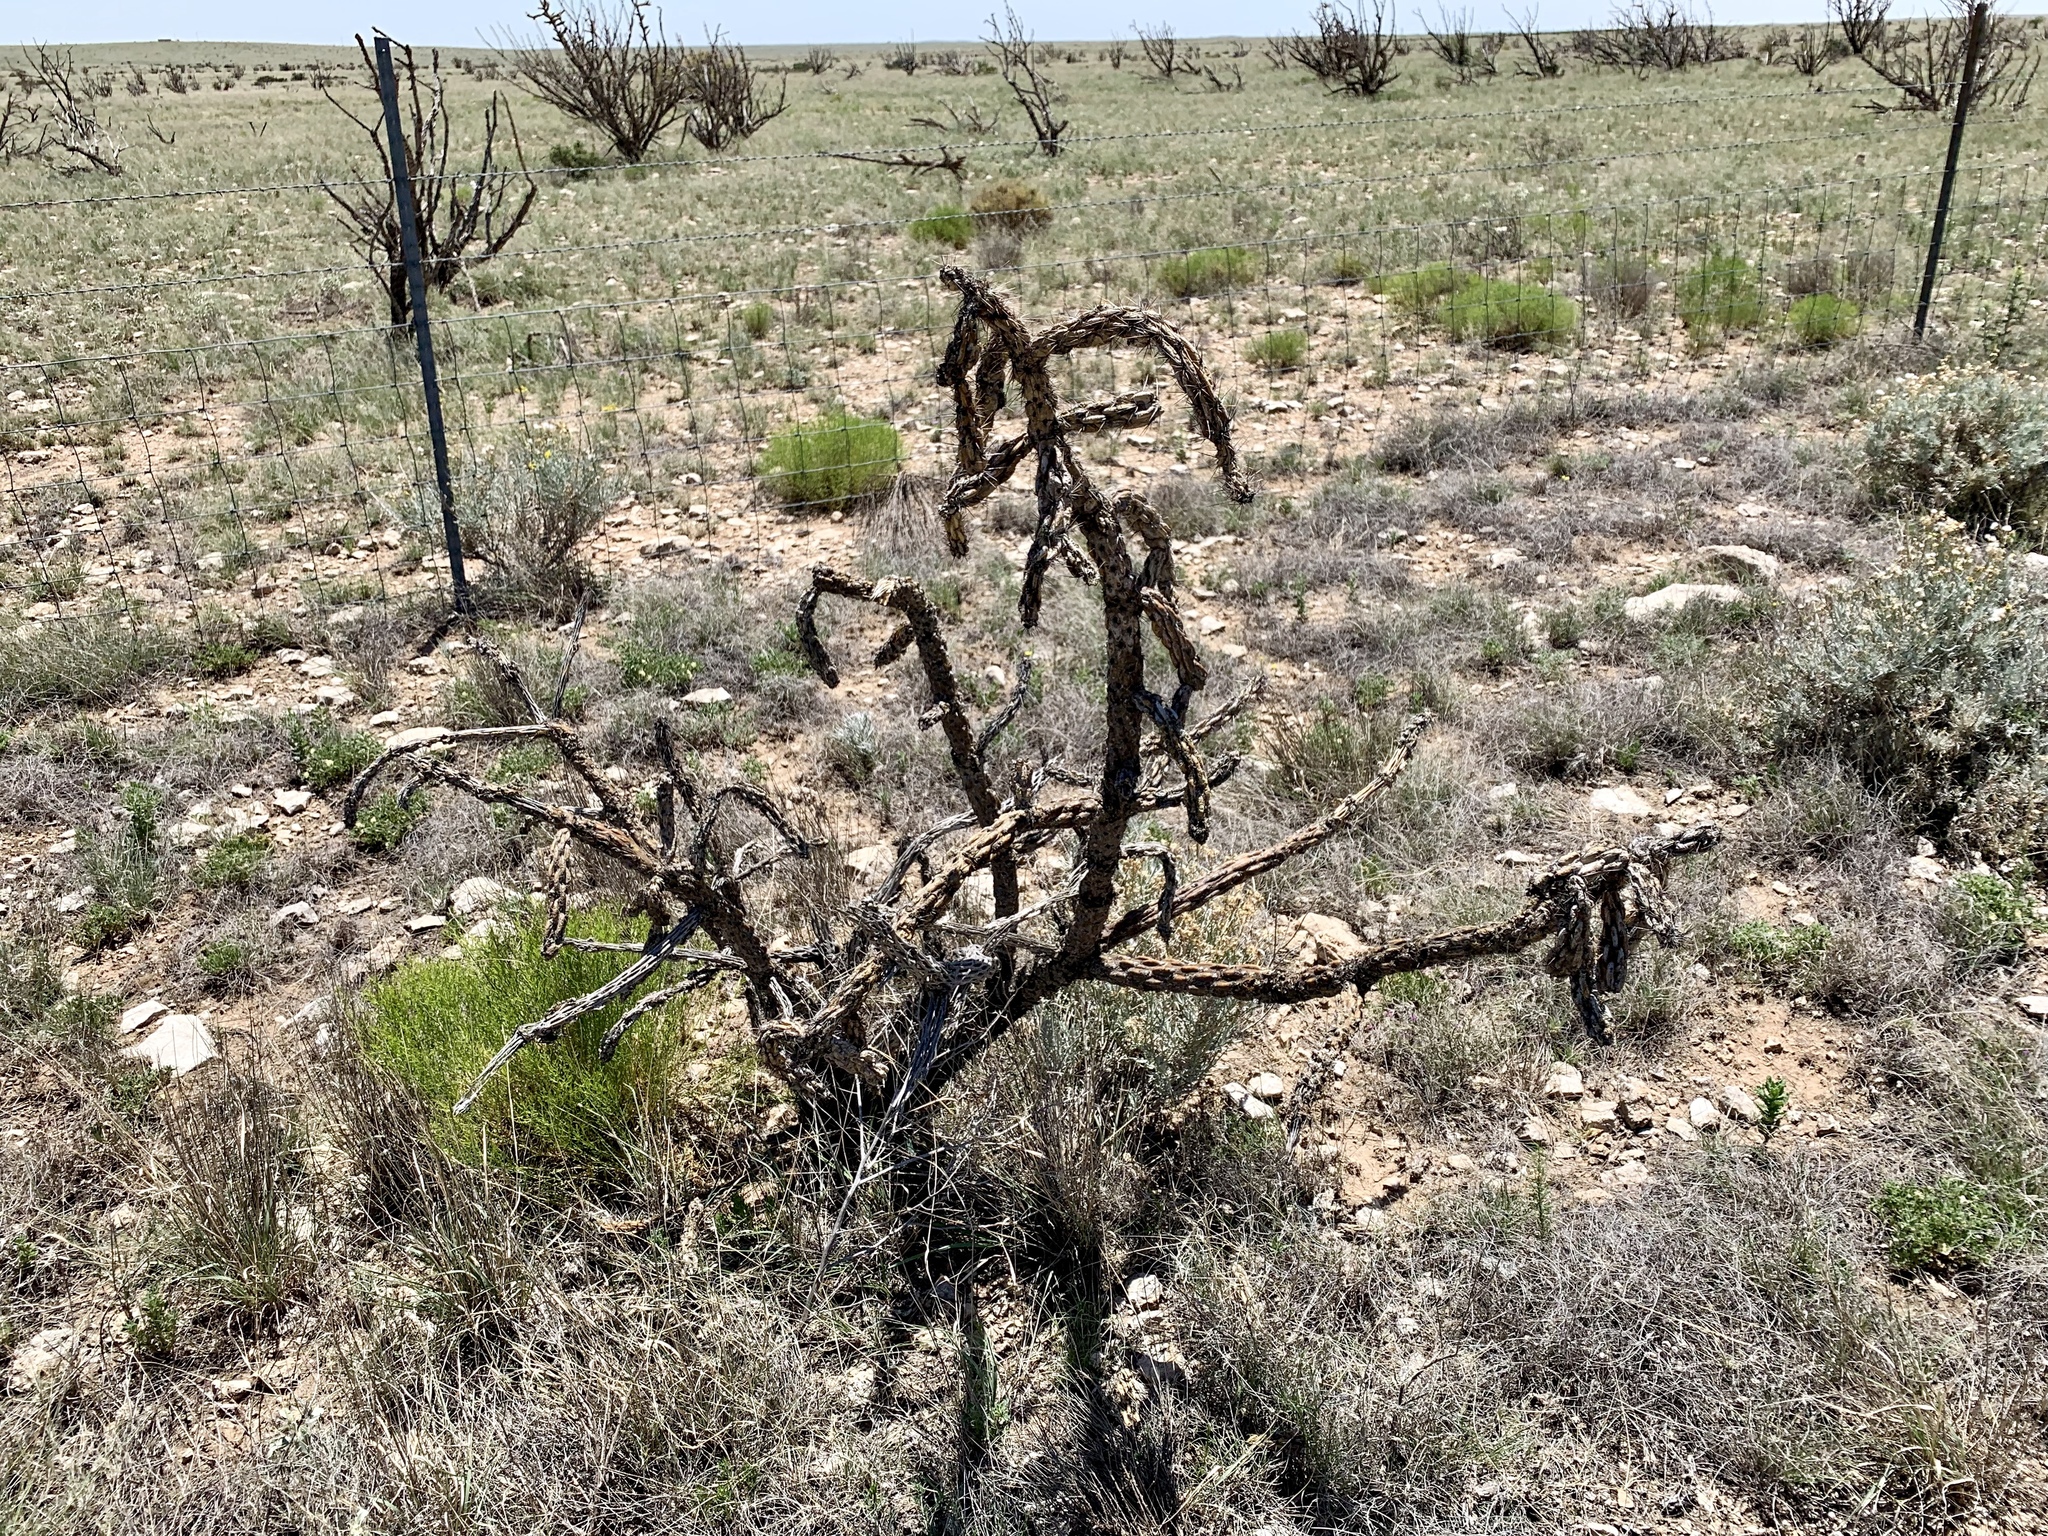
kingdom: Plantae
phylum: Tracheophyta
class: Magnoliopsida
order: Caryophyllales
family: Cactaceae
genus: Cylindropuntia
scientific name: Cylindropuntia imbricata
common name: Candelabrum cactus
